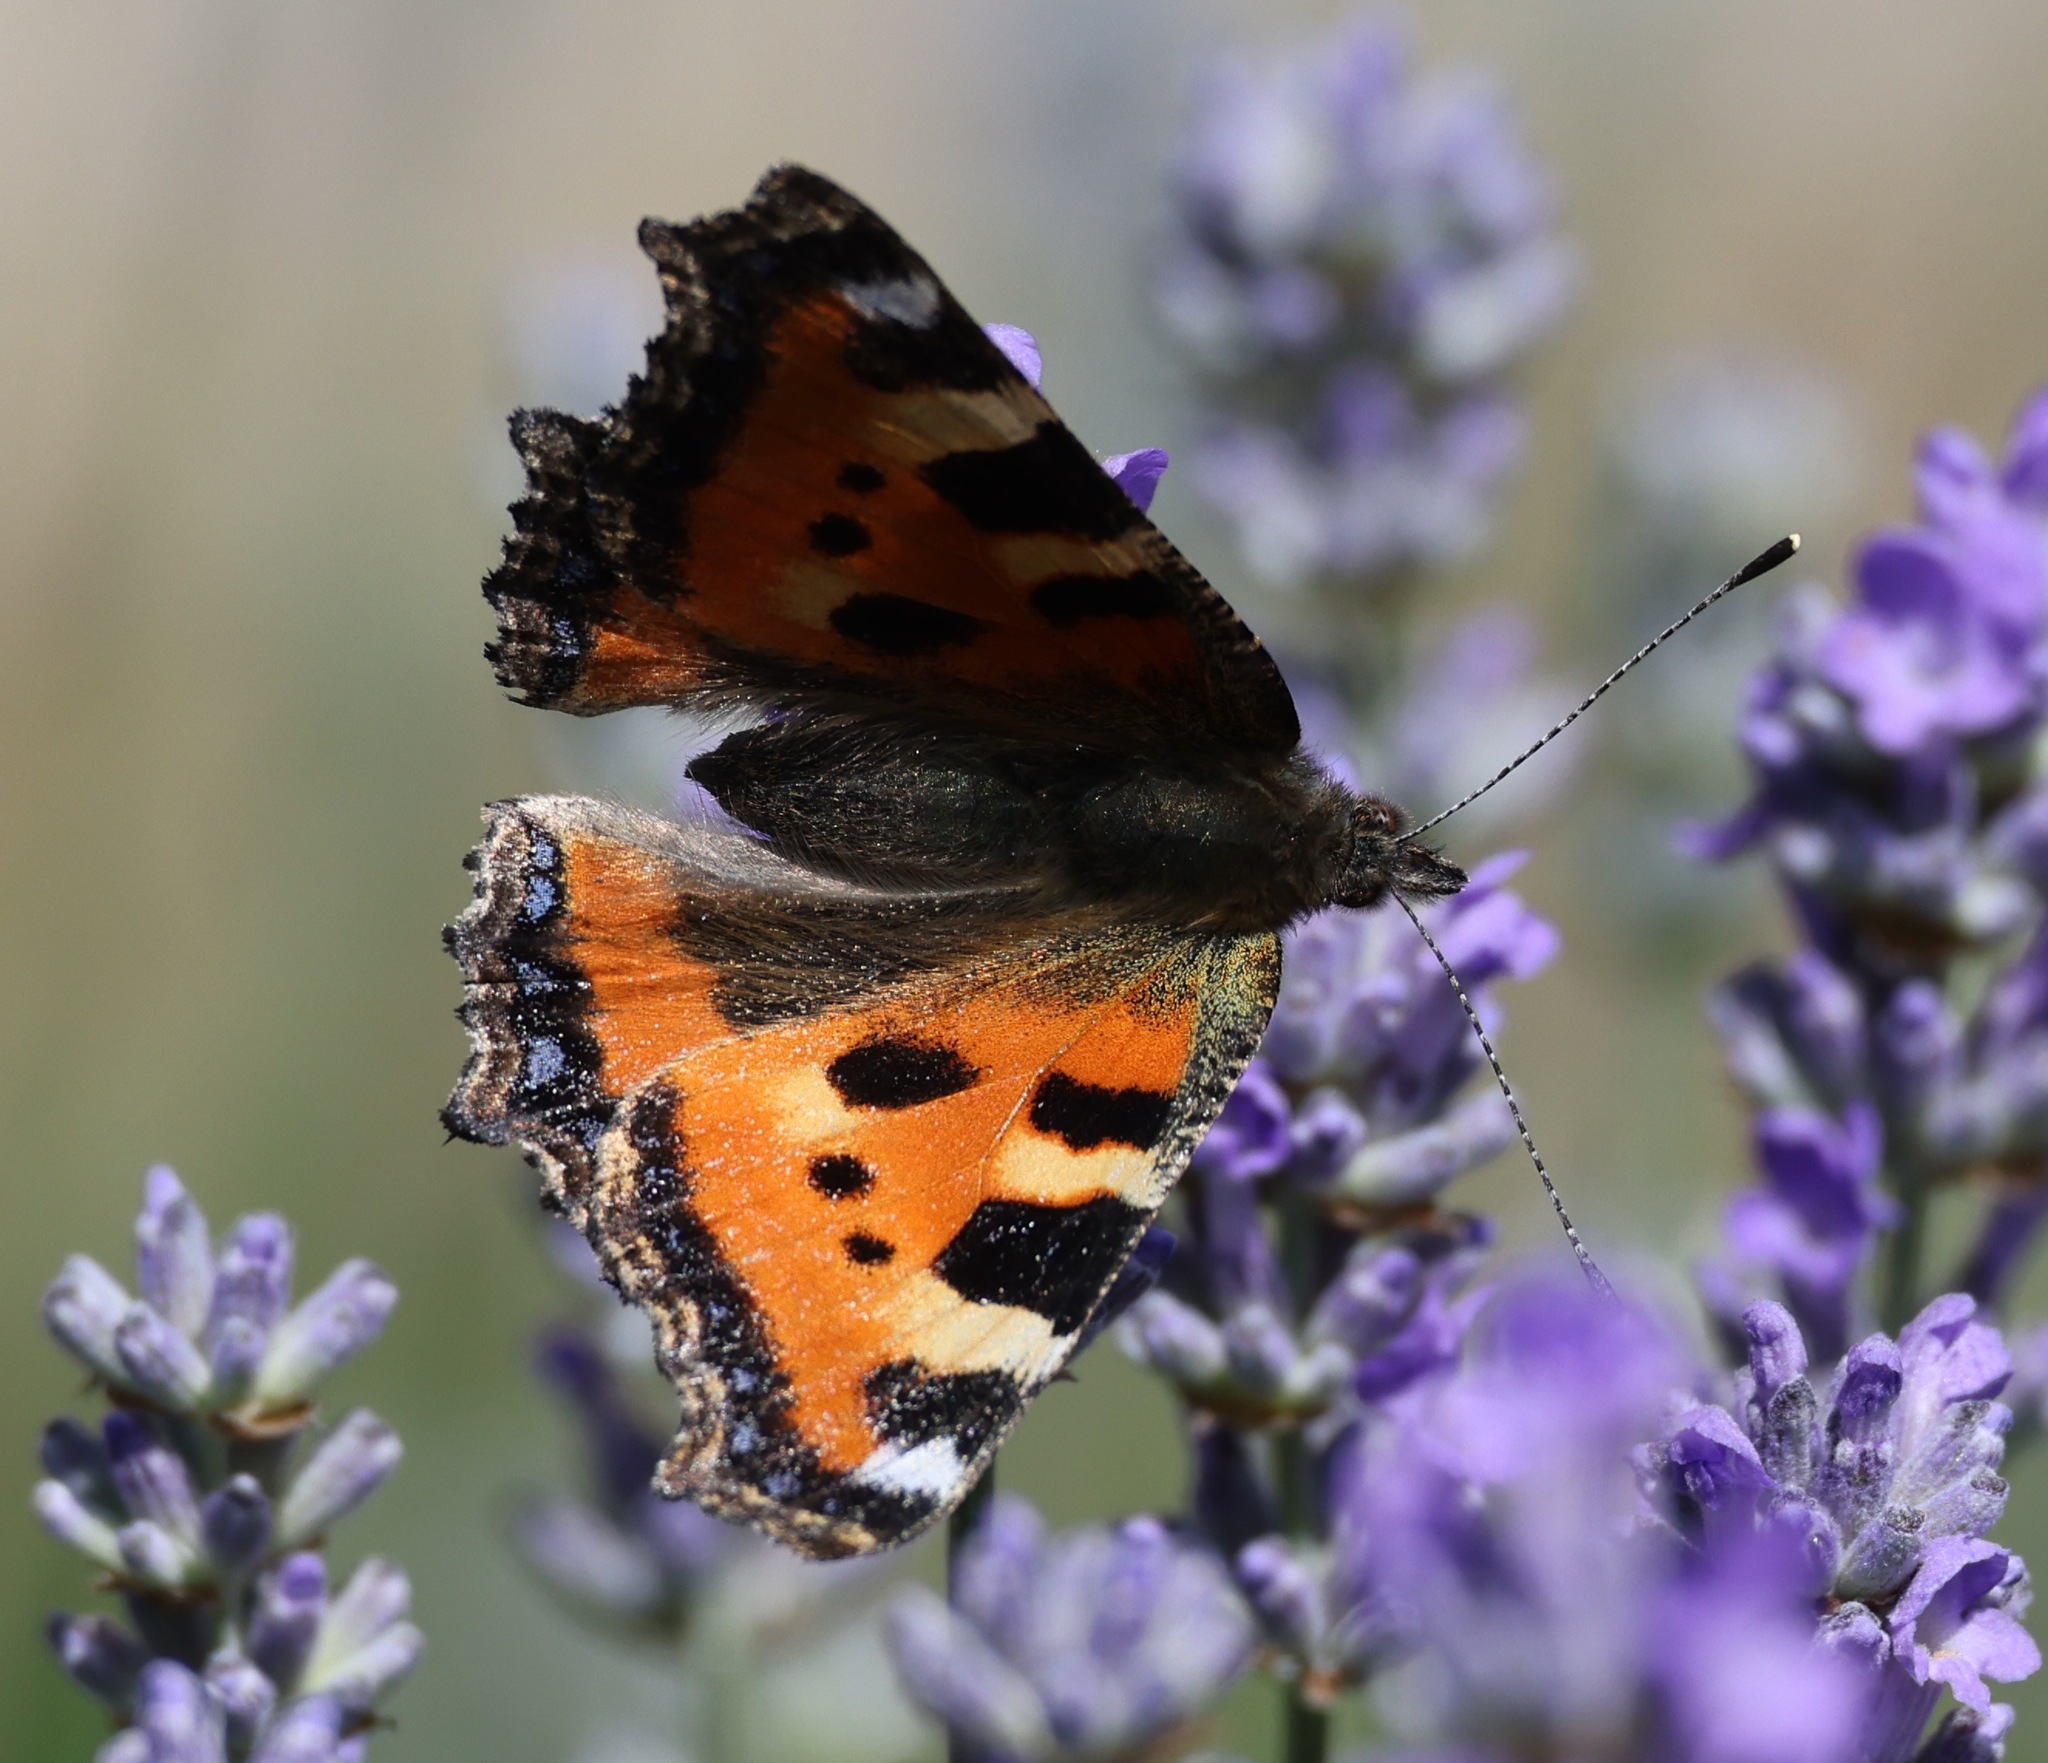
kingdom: Animalia
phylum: Arthropoda
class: Insecta
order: Lepidoptera
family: Nymphalidae
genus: Aglais
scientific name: Aglais urticae
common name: Small tortoiseshell
